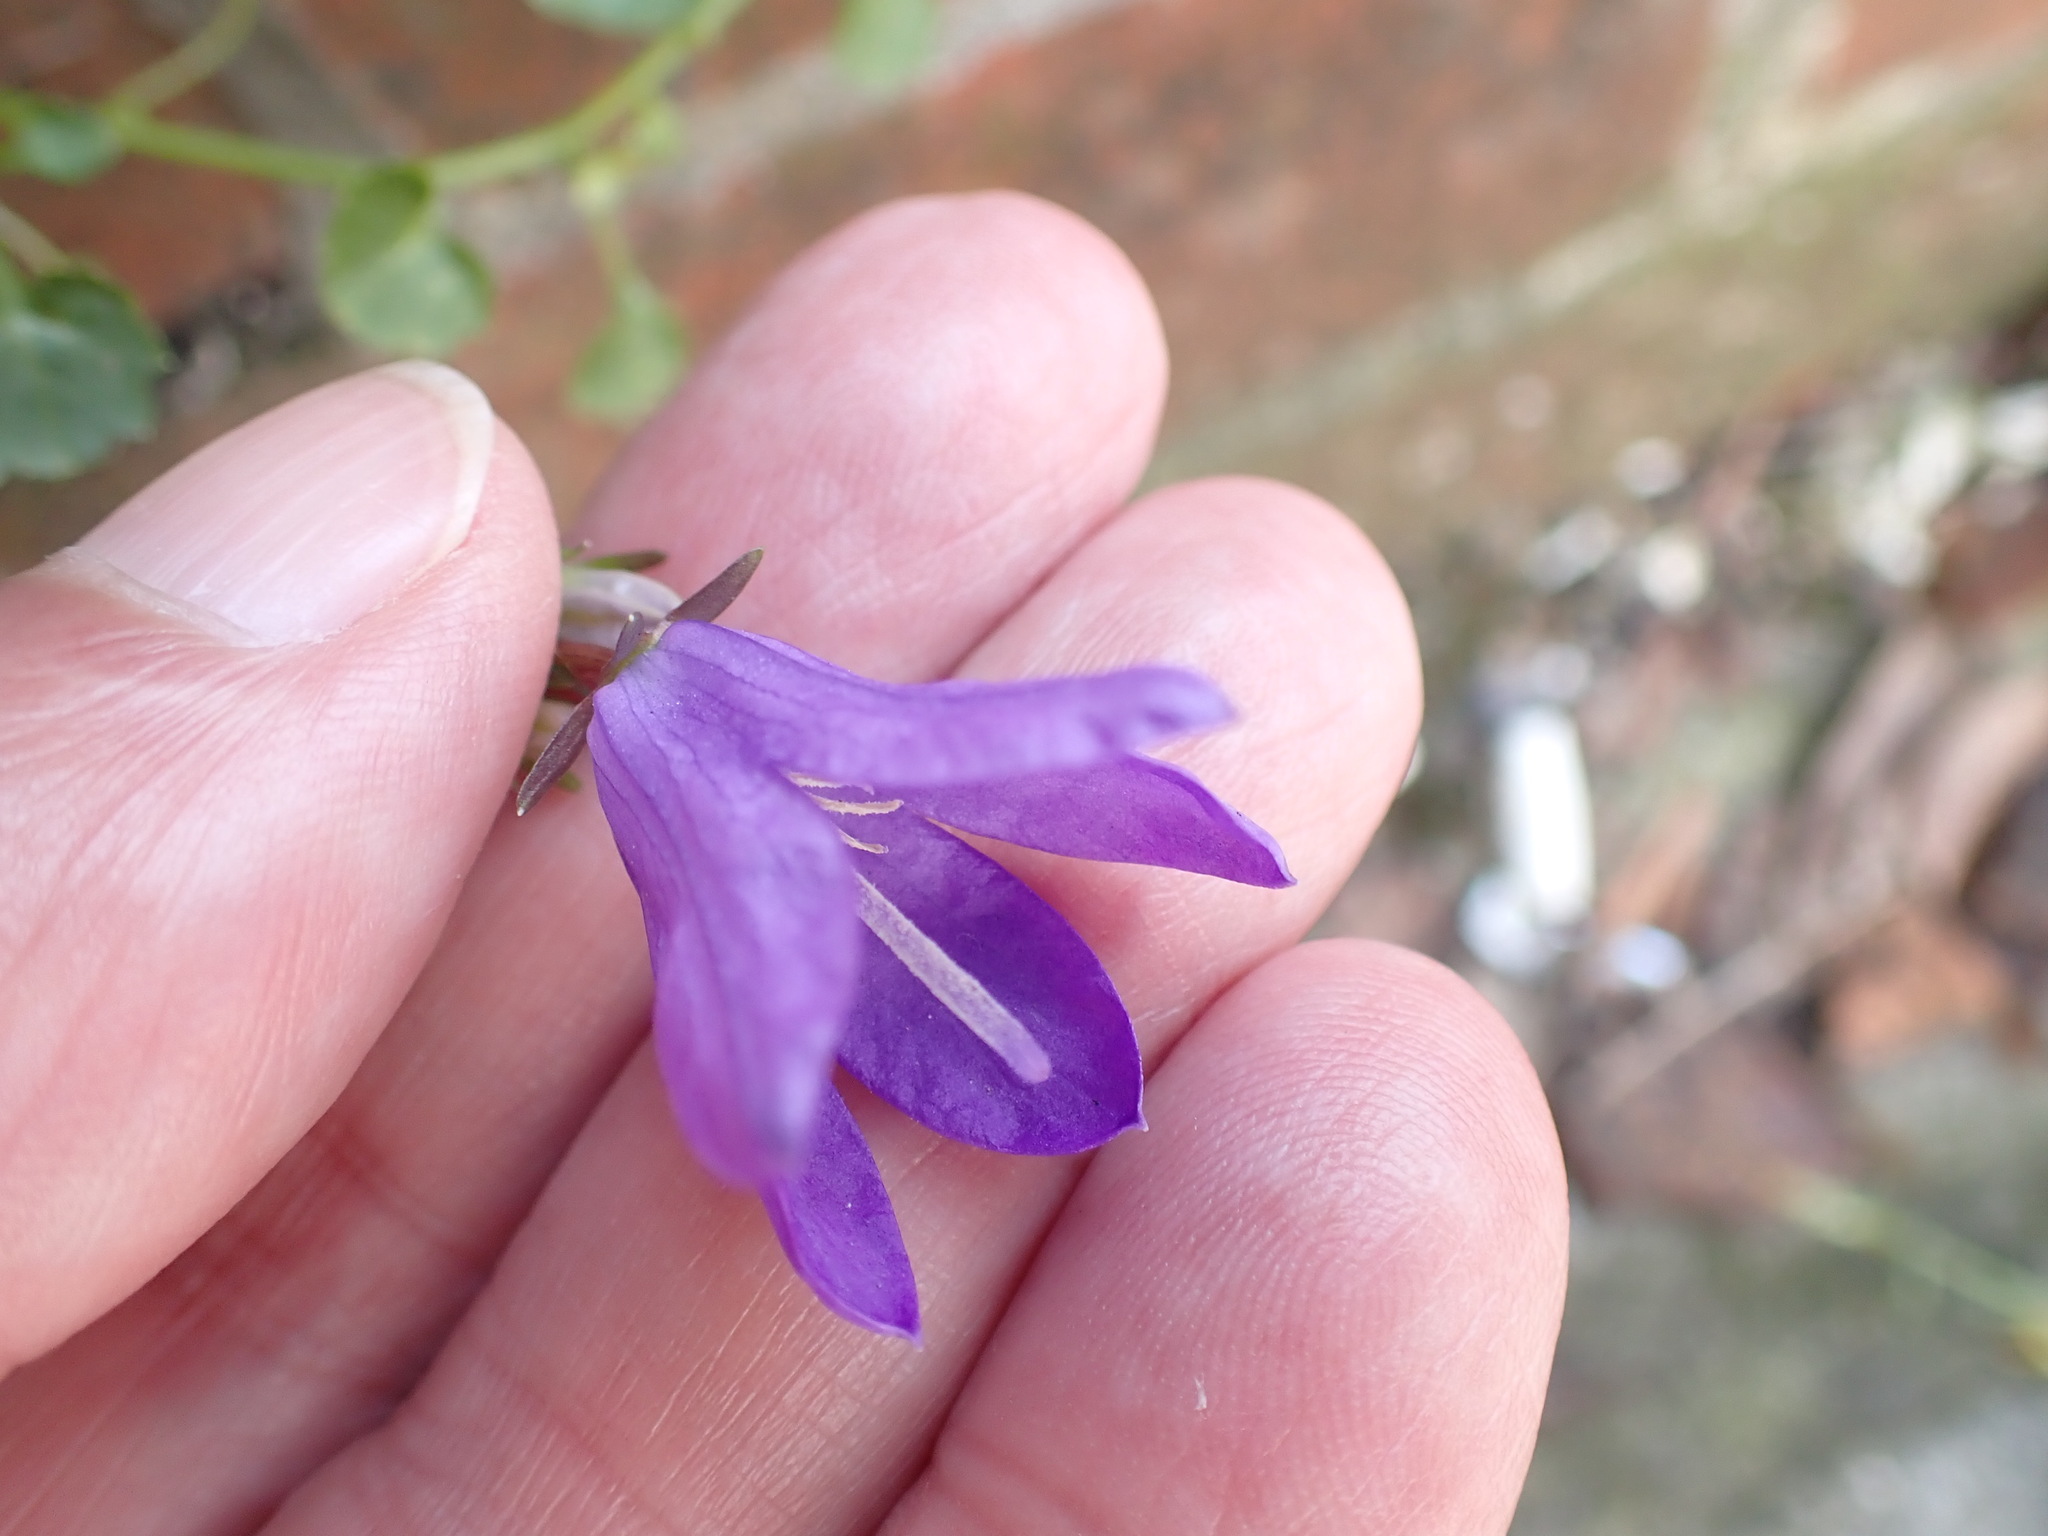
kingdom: Plantae
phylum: Tracheophyta
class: Magnoliopsida
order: Asterales
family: Campanulaceae
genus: Campanula
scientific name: Campanula portenschlagiana
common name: Adria bellflower
